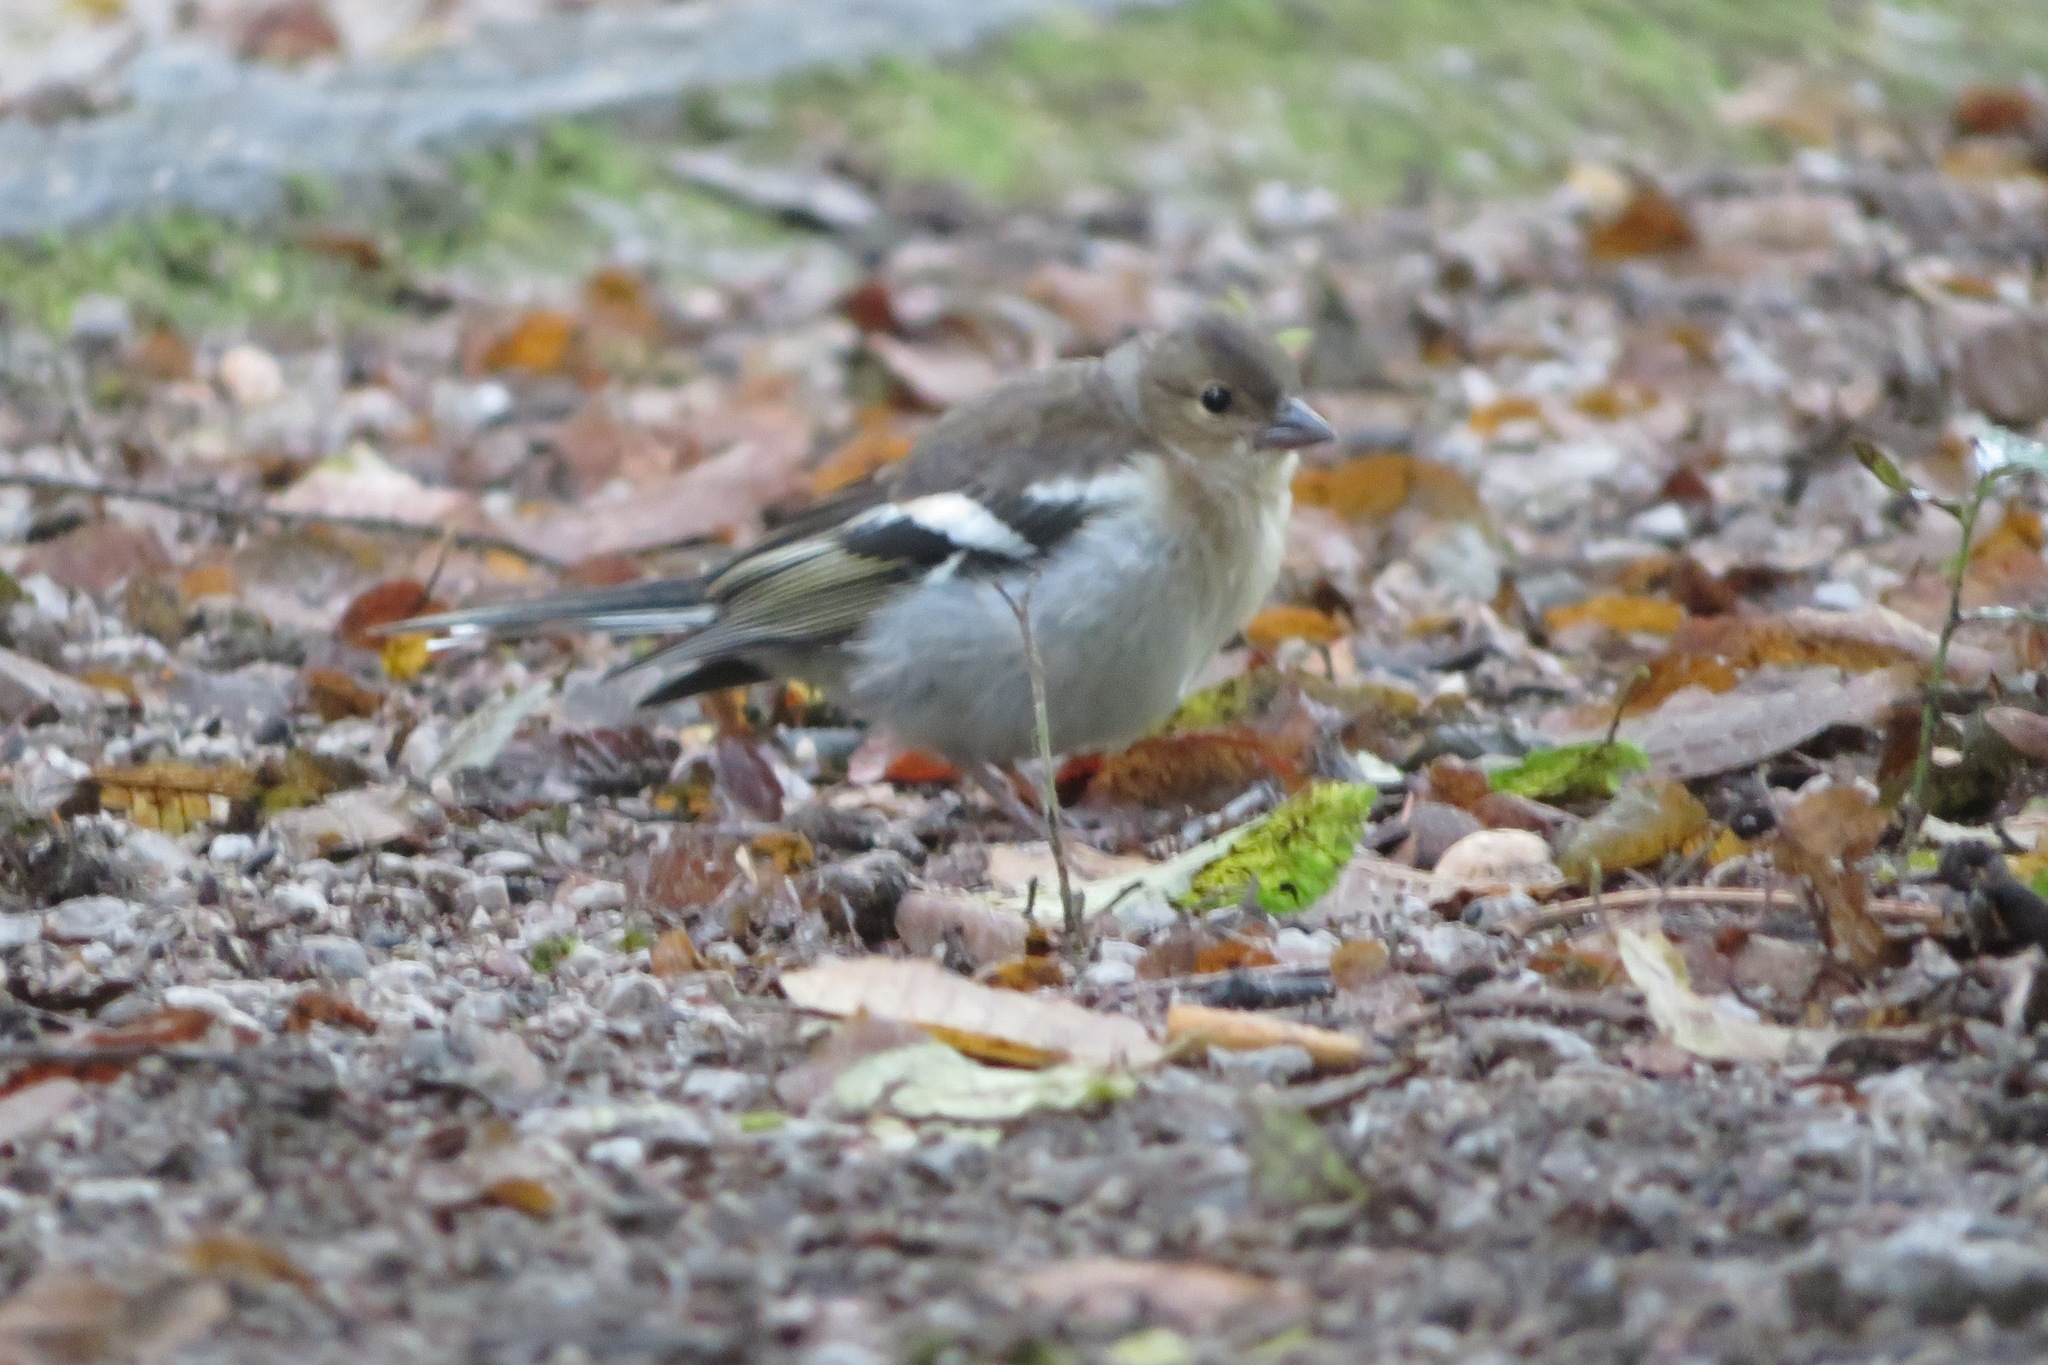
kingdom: Animalia
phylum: Chordata
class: Aves
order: Passeriformes
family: Fringillidae
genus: Fringilla
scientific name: Fringilla coelebs
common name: Common chaffinch
